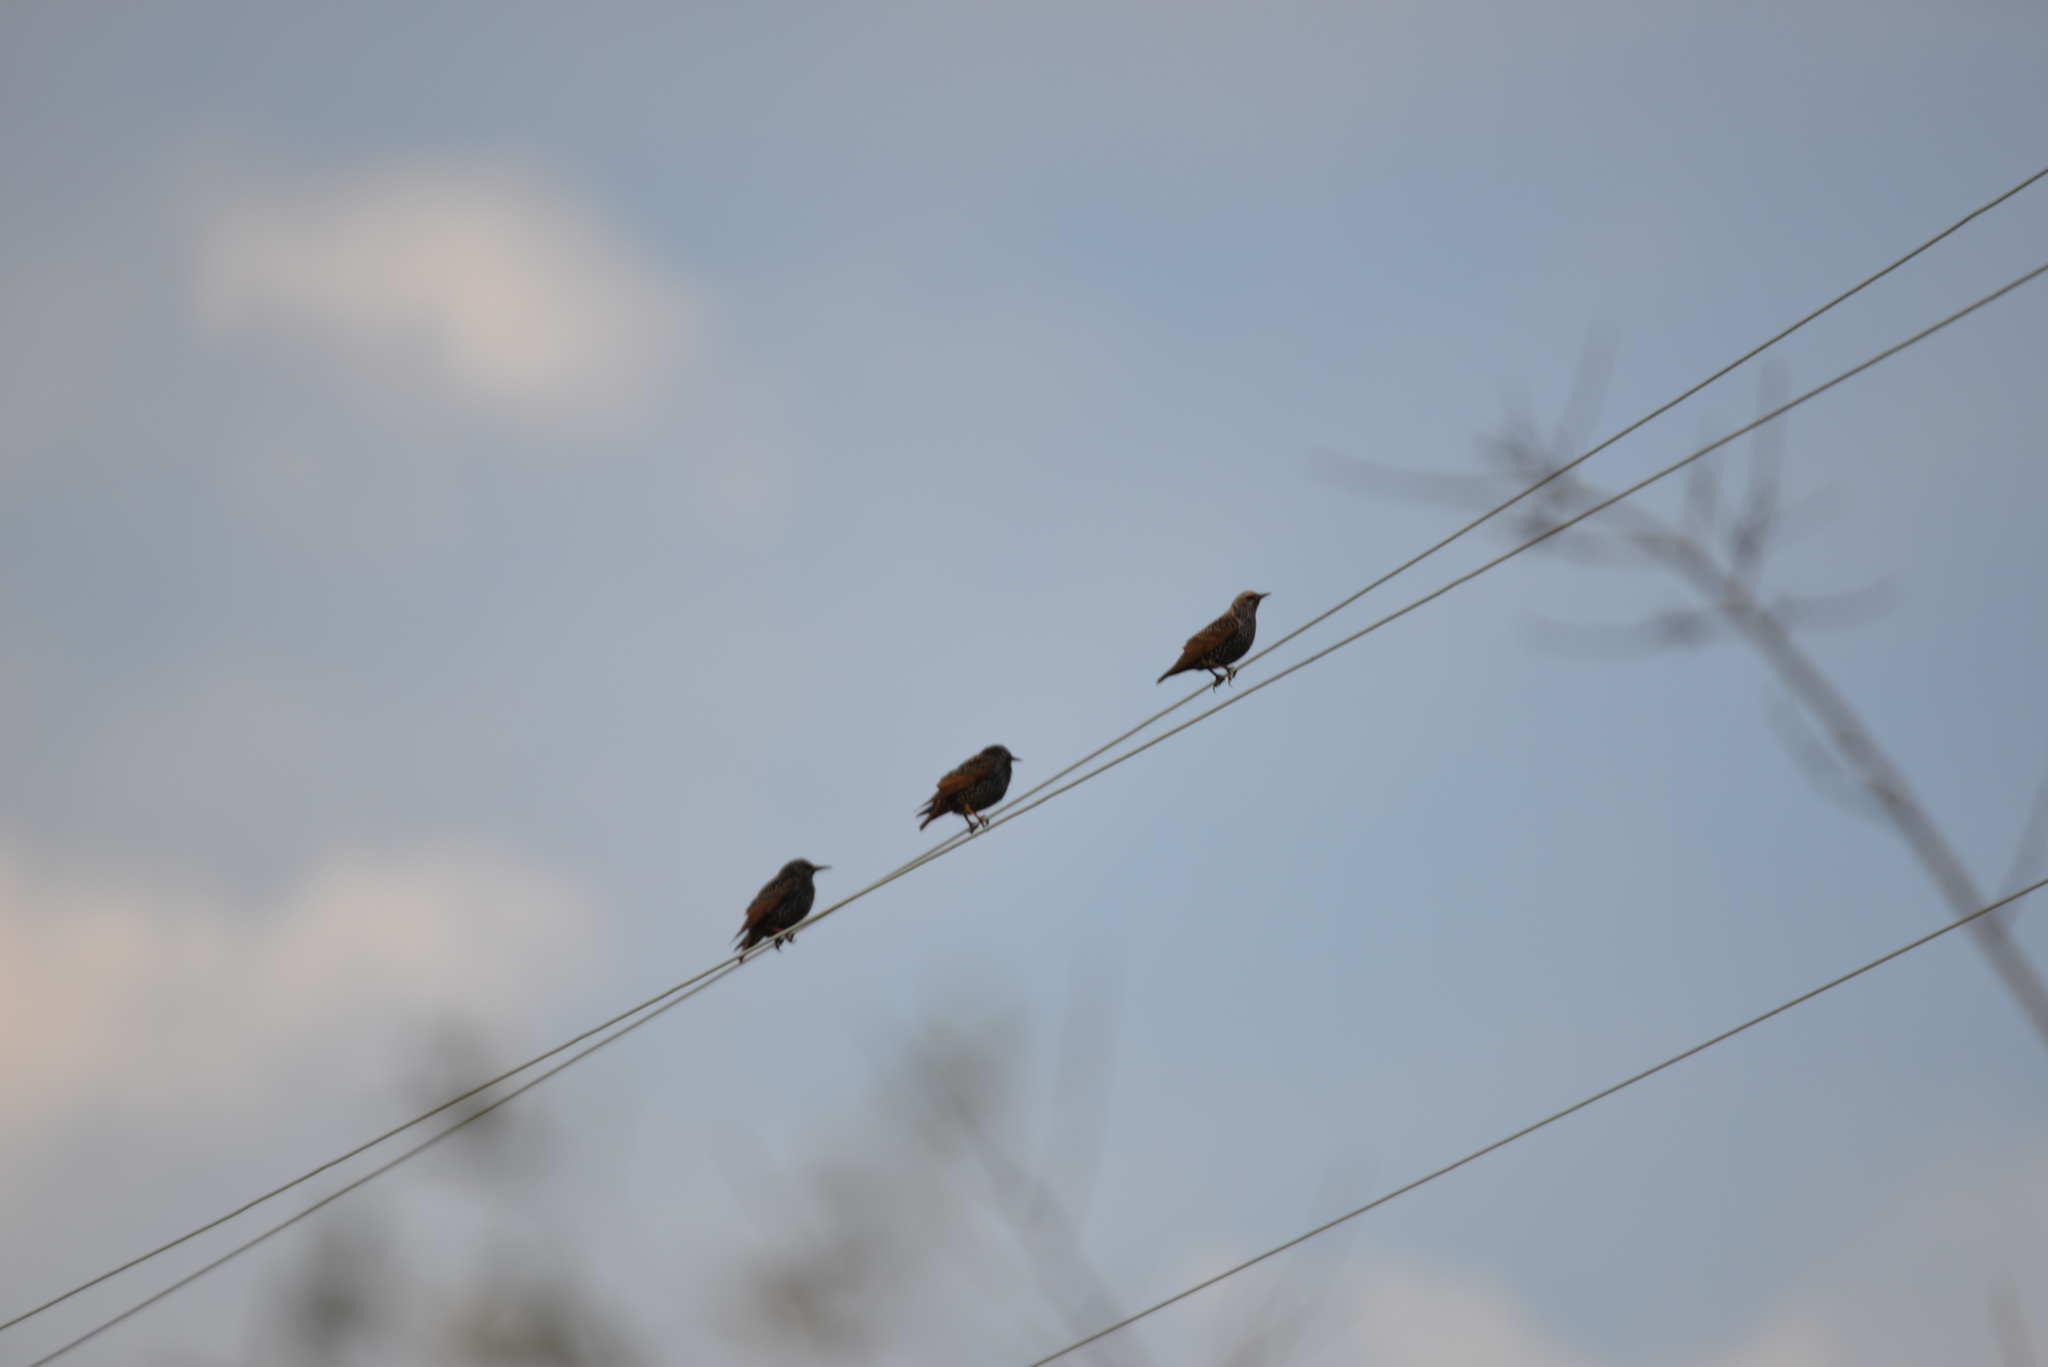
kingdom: Animalia
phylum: Chordata
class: Aves
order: Passeriformes
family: Sturnidae
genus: Sturnus
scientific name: Sturnus vulgaris
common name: Common starling
